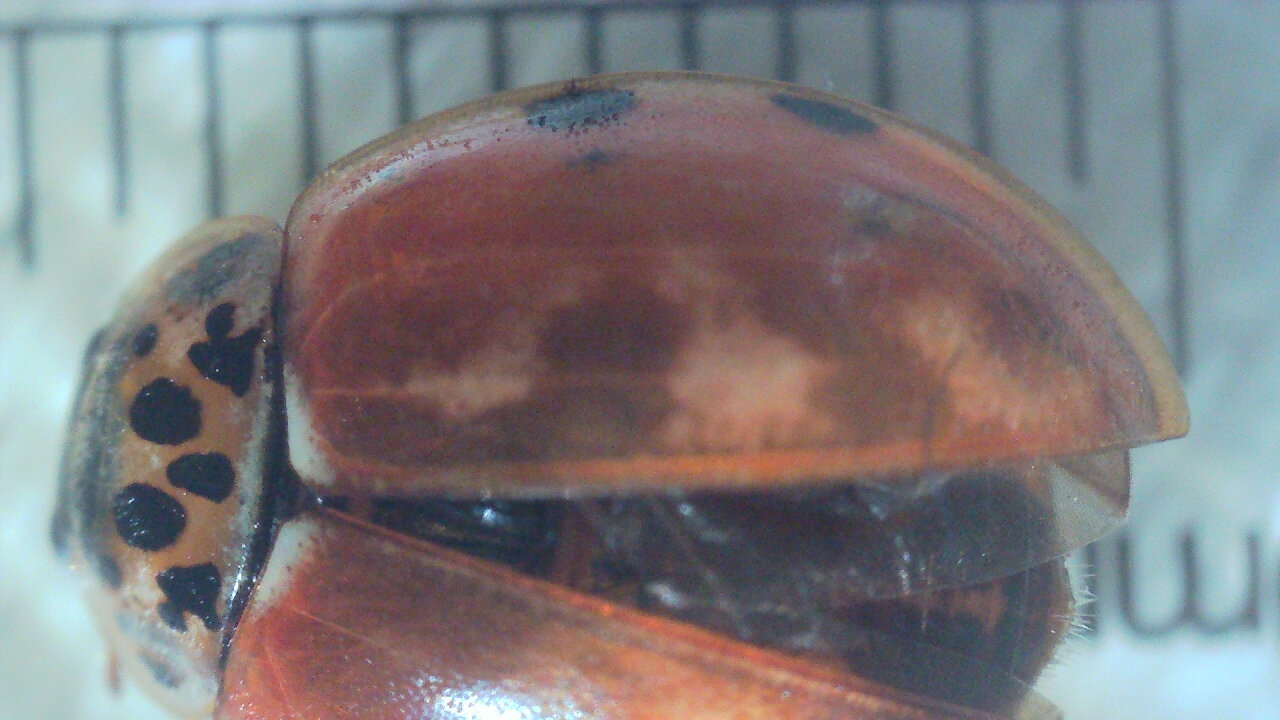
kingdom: Animalia
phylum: Arthropoda
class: Insecta
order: Coleoptera
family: Coccinellidae
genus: Harmonia
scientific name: Harmonia quadripunctata
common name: Cream-streaked ladybird
